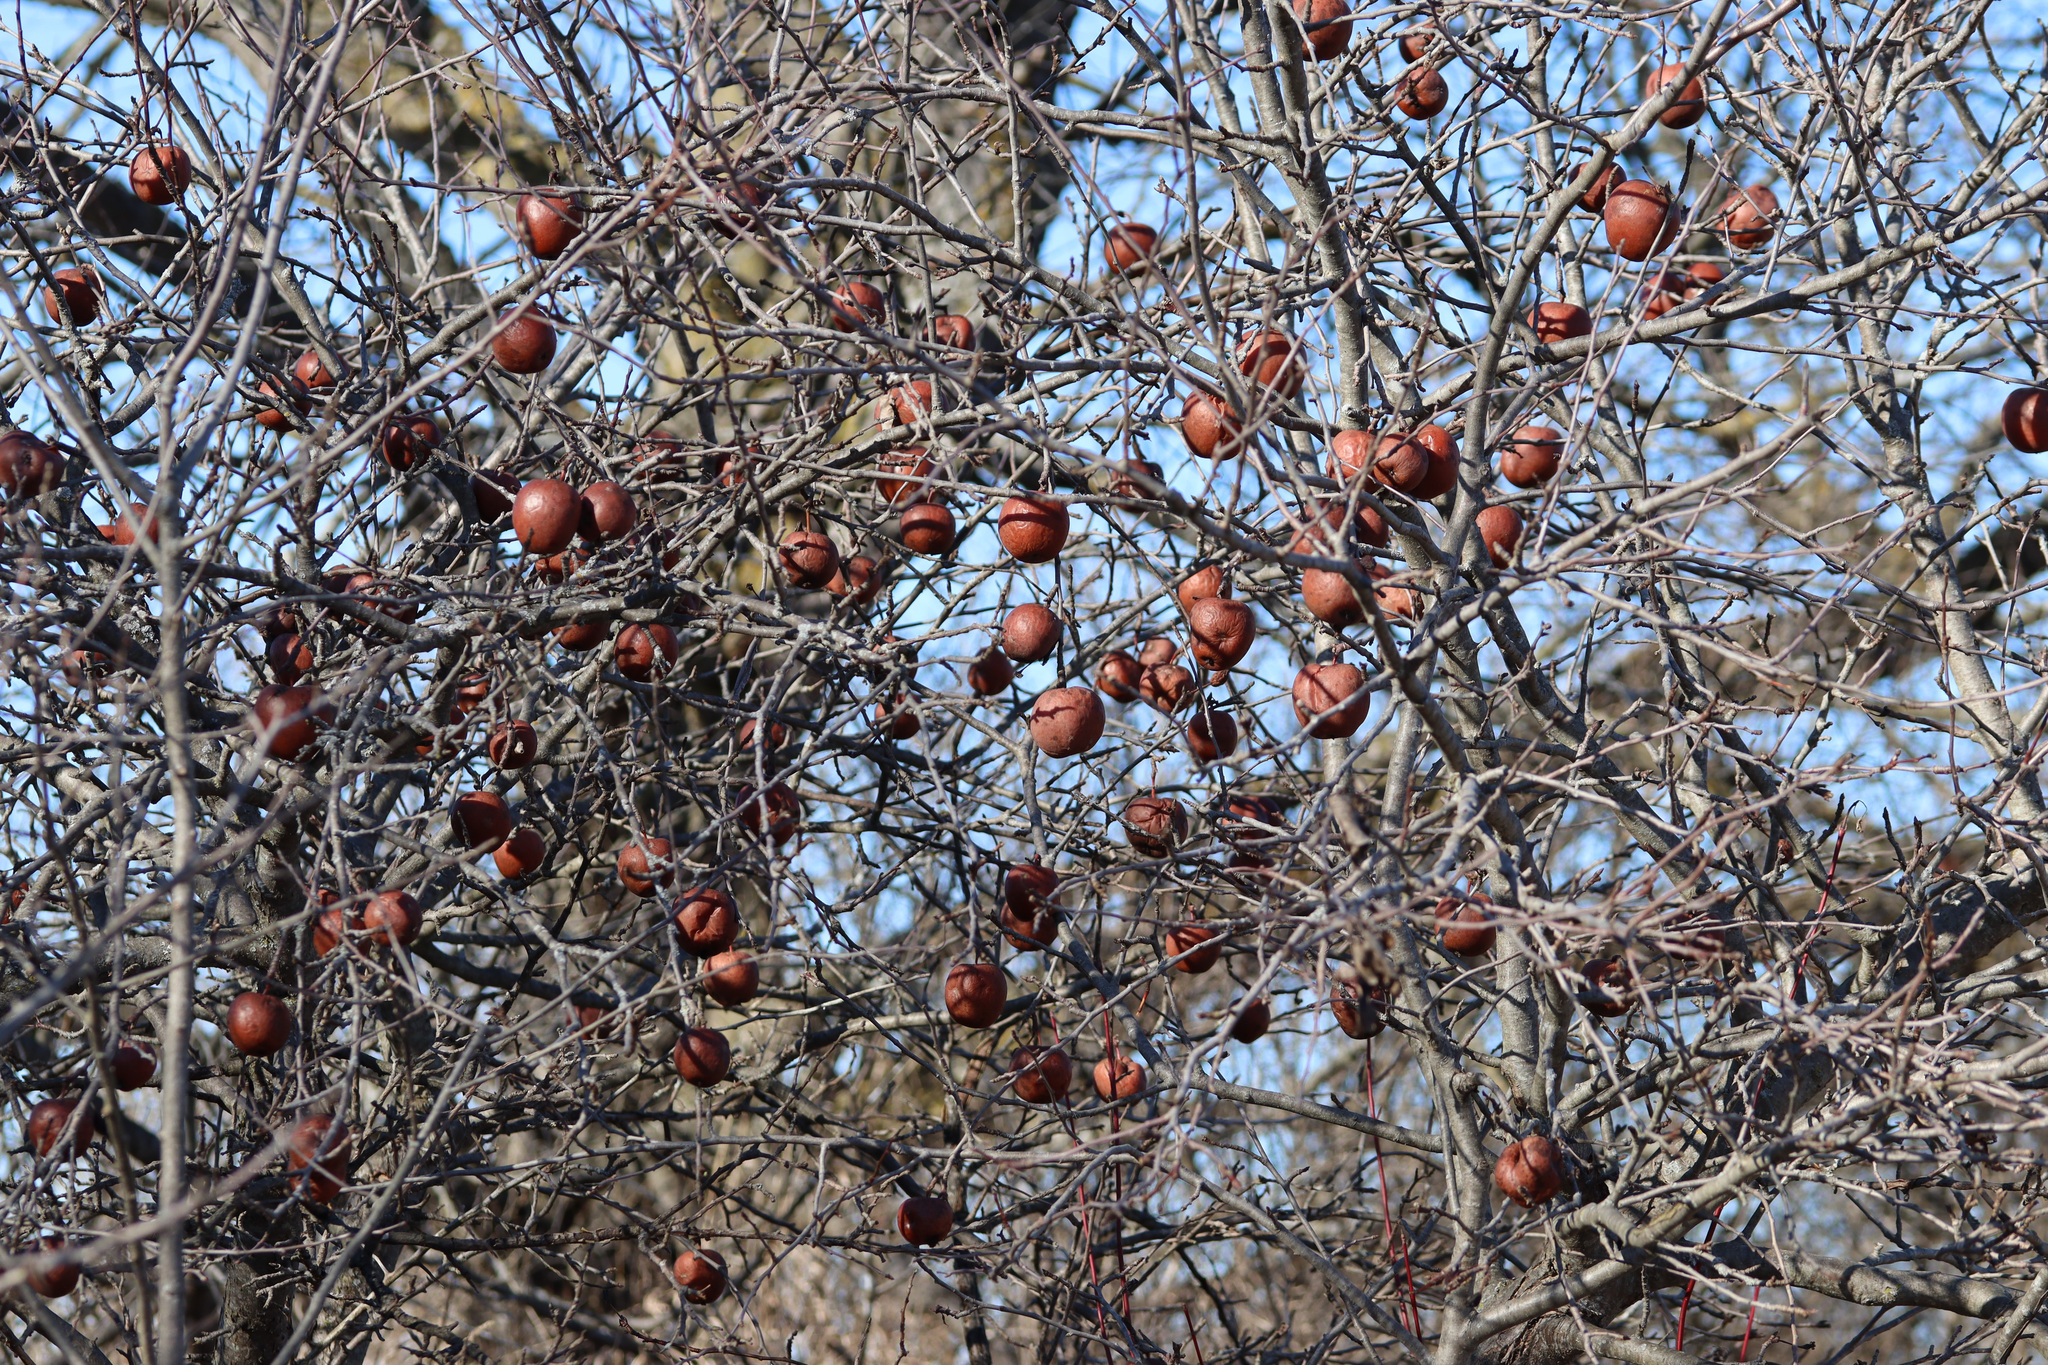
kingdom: Plantae
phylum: Tracheophyta
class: Magnoliopsida
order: Rosales
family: Rosaceae
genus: Malus
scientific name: Malus domestica
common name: Apple
